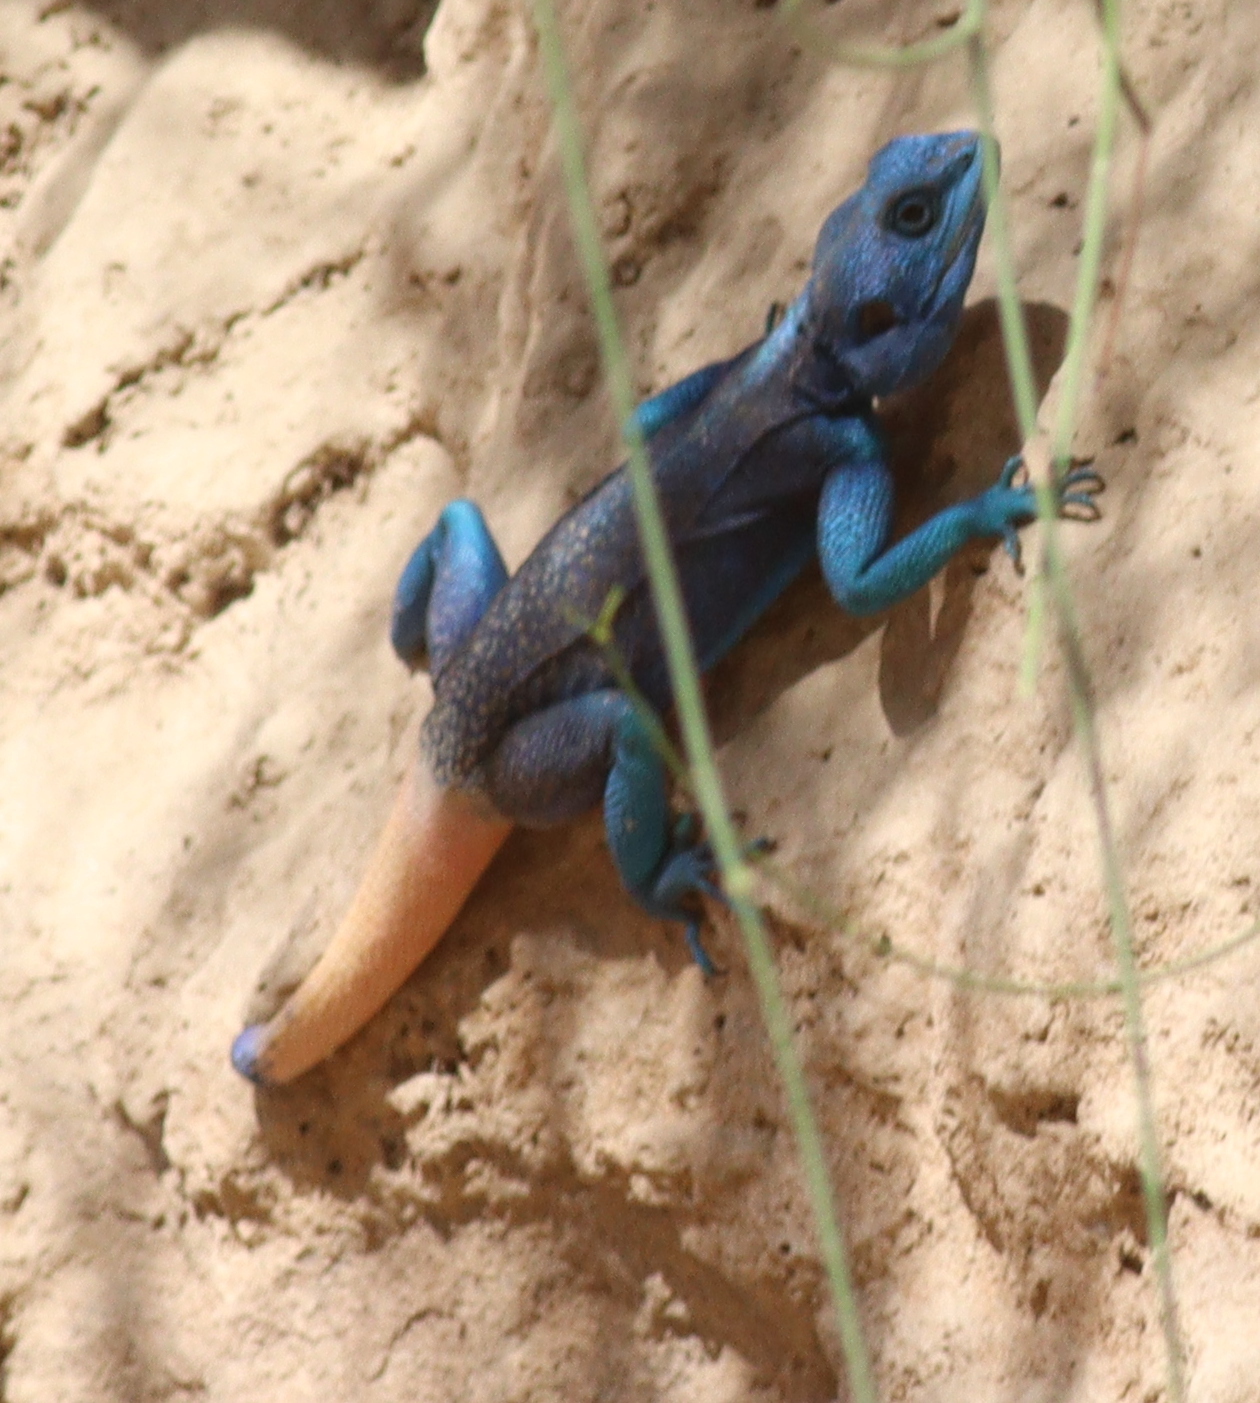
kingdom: Animalia
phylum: Chordata
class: Squamata
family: Agamidae
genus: Acanthocercus
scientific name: Acanthocercus adramitanus
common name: Anderson's rock agama
